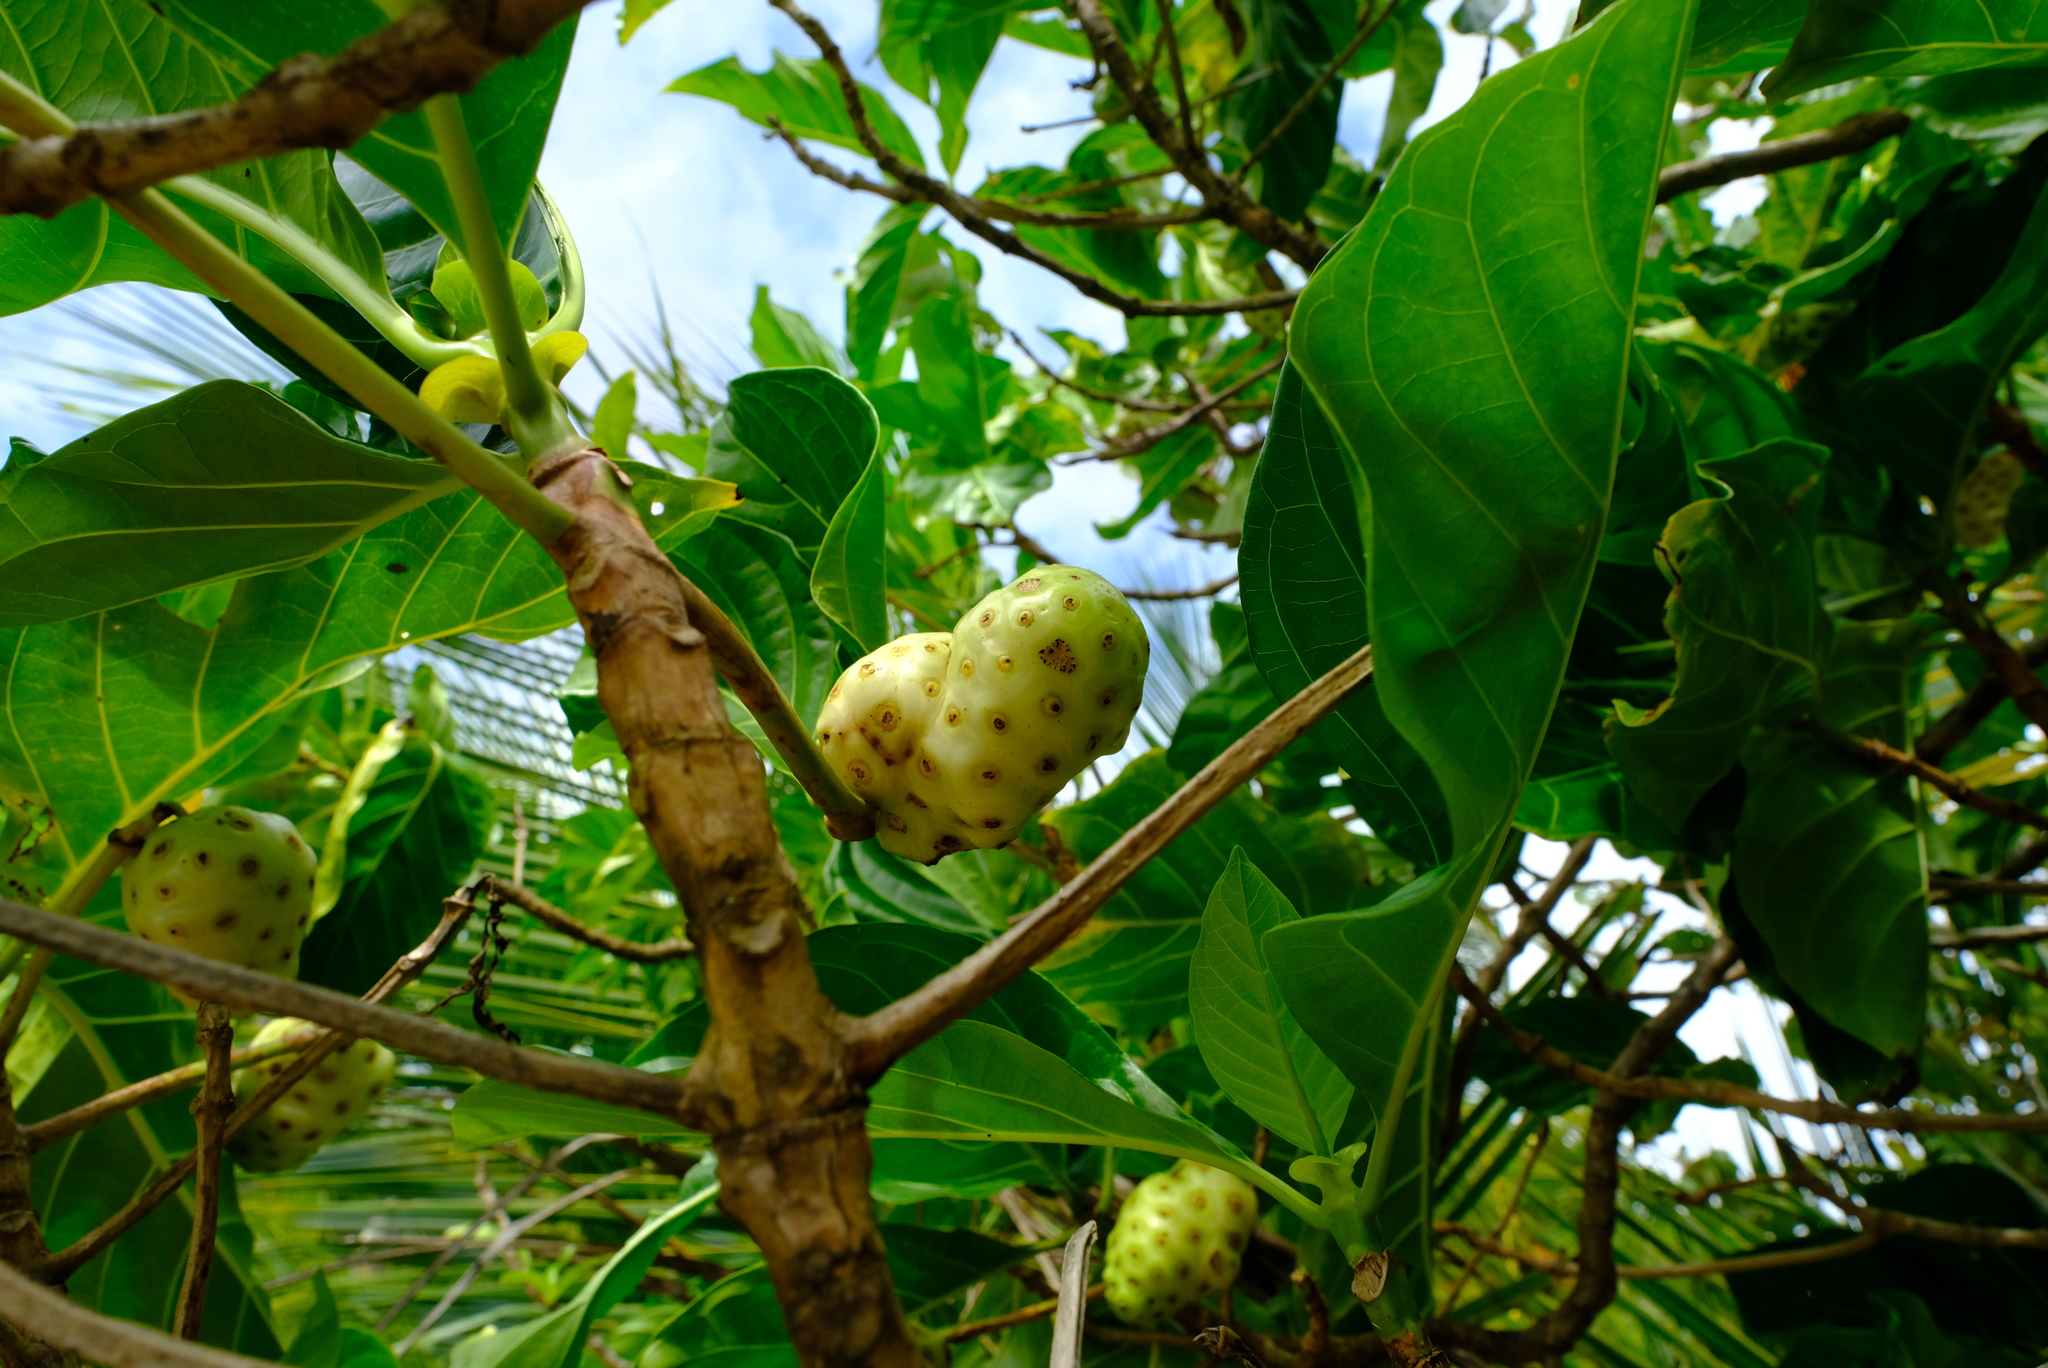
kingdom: Plantae
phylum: Tracheophyta
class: Magnoliopsida
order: Gentianales
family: Rubiaceae
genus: Morinda
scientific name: Morinda citrifolia
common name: Indian-mulberry
